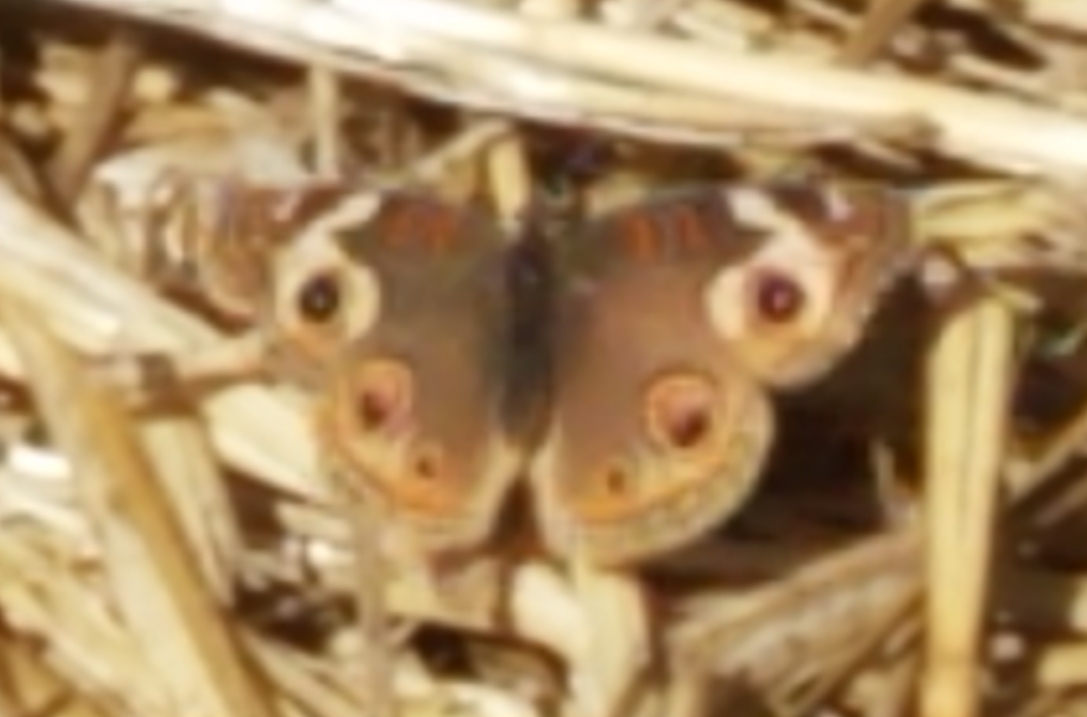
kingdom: Animalia
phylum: Arthropoda
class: Insecta
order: Lepidoptera
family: Nymphalidae
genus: Junonia
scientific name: Junonia grisea
